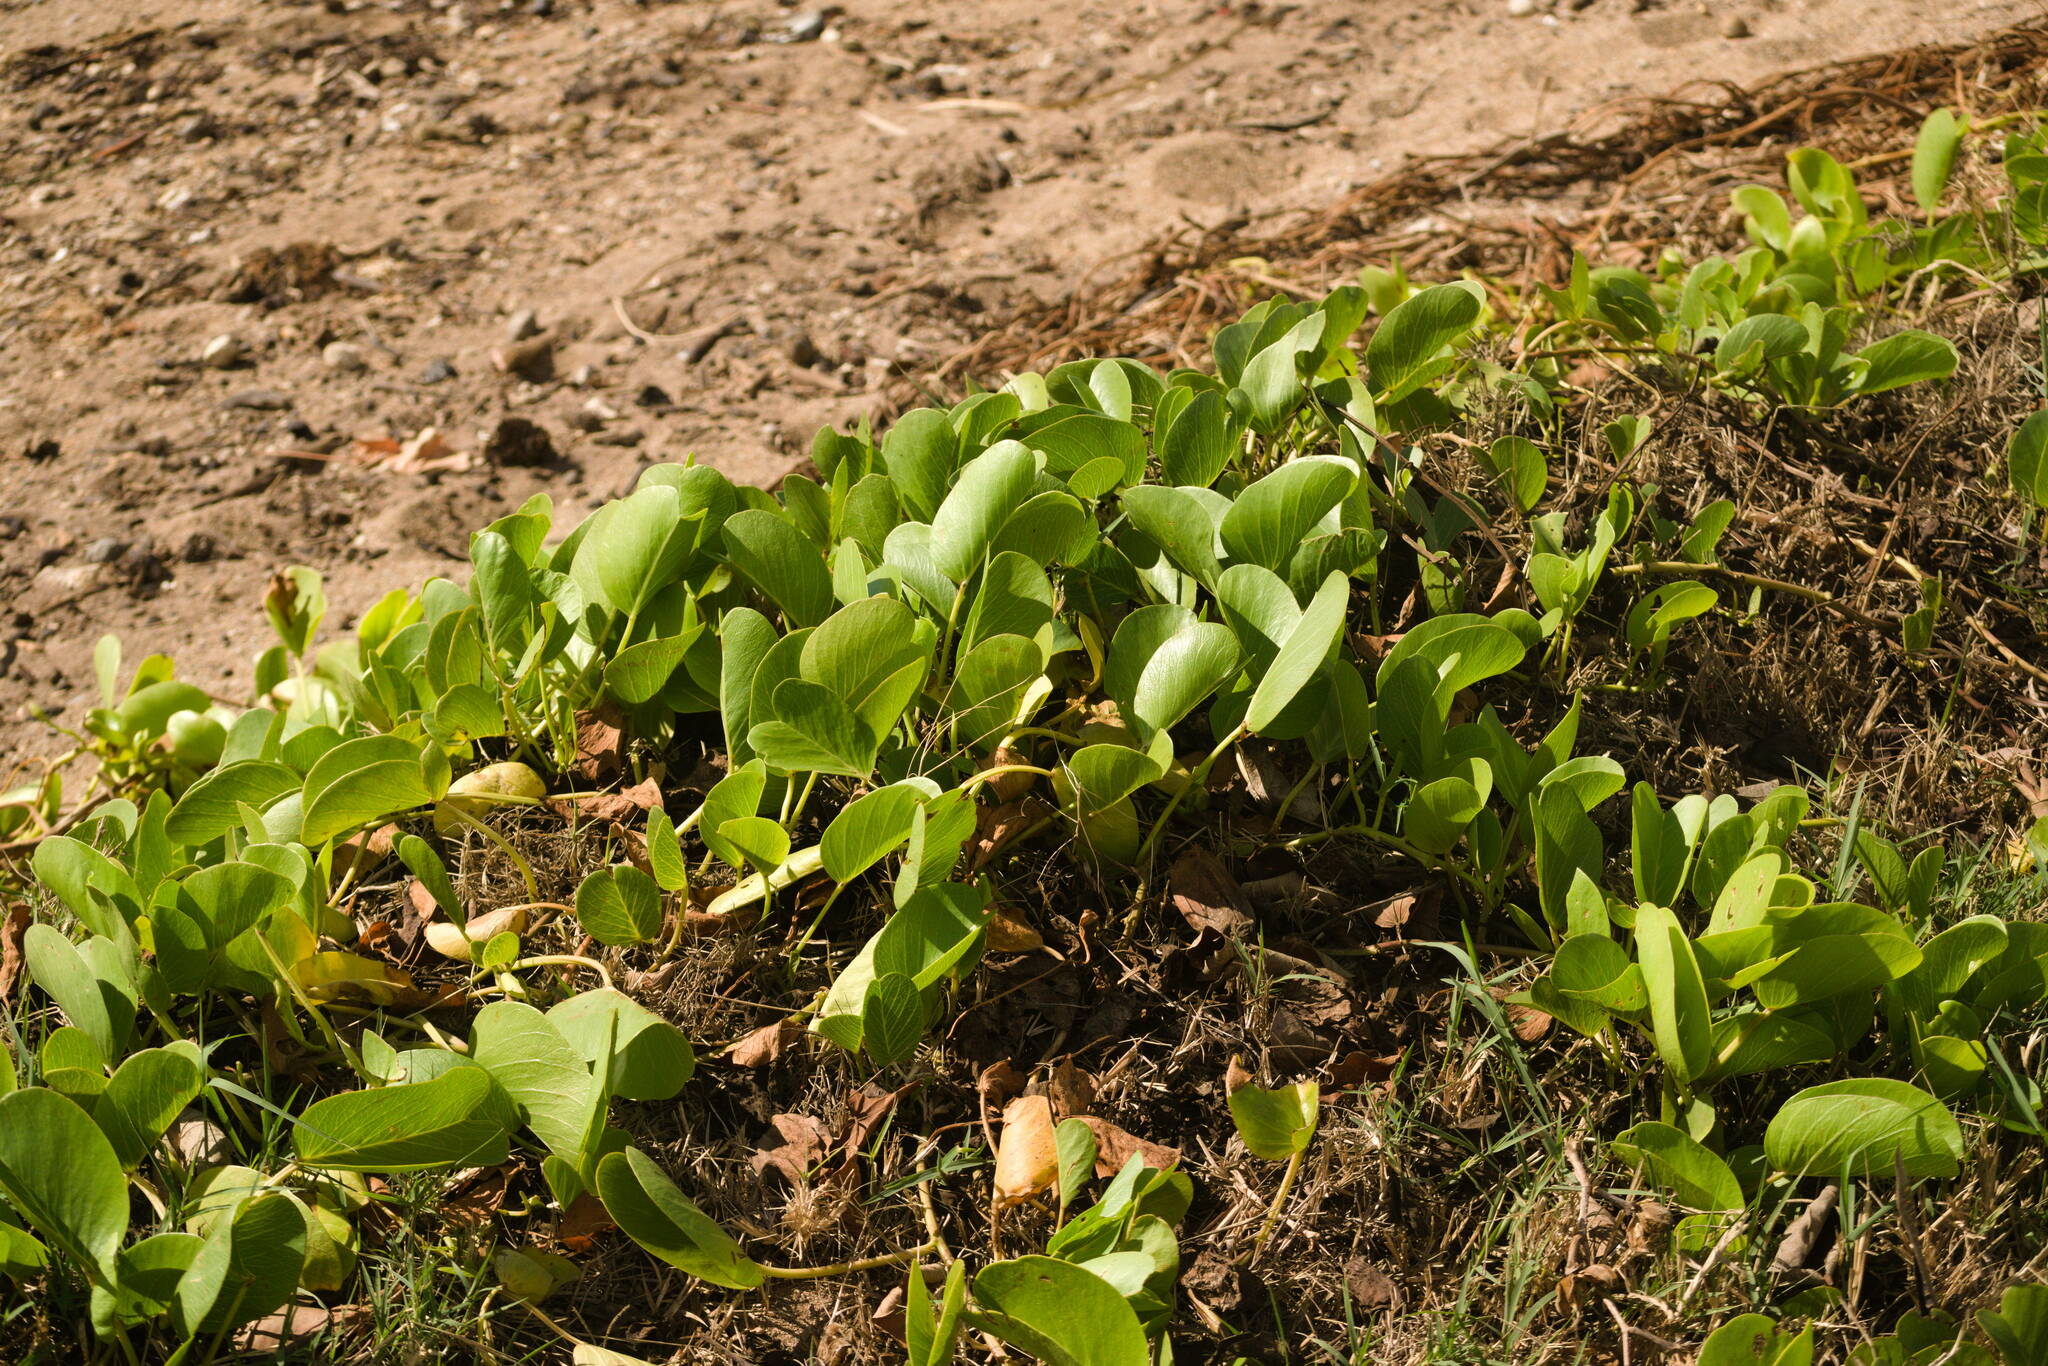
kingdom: Plantae
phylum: Tracheophyta
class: Magnoliopsida
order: Solanales
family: Convolvulaceae
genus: Ipomoea
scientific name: Ipomoea pes-caprae
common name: Beach morning glory
